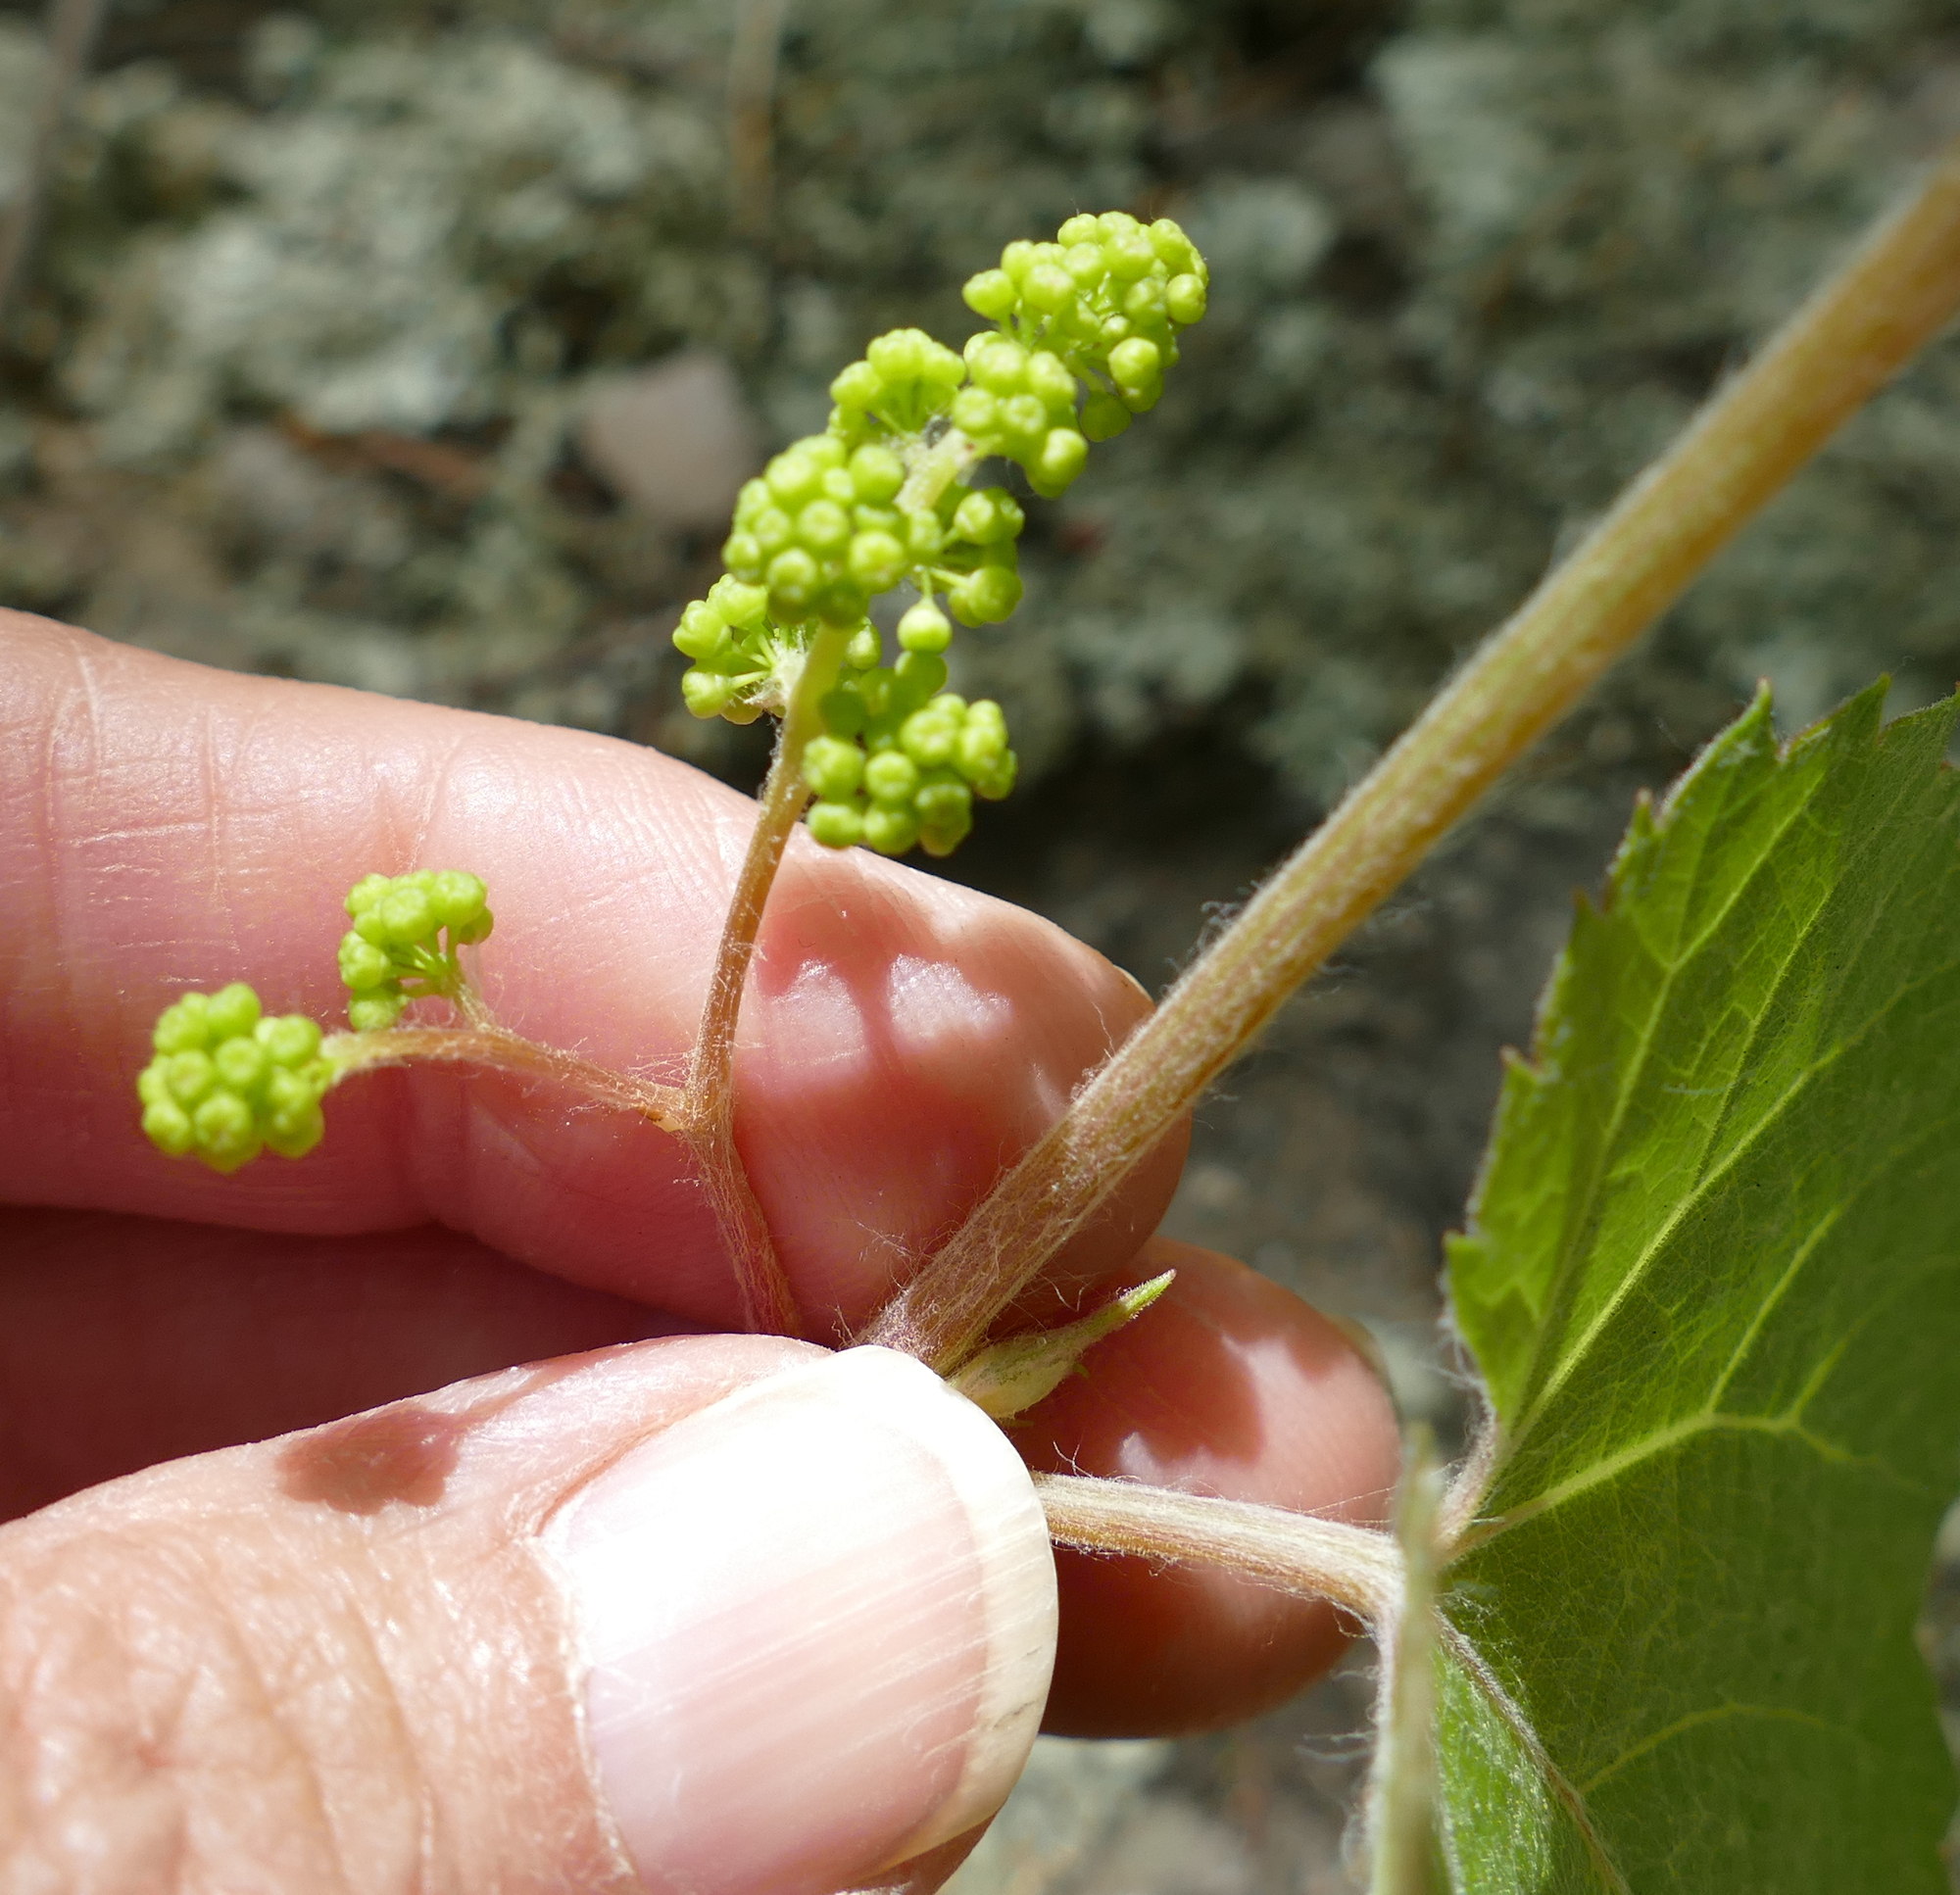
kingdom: Plantae
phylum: Tracheophyta
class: Magnoliopsida
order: Vitales
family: Vitaceae
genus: Vitis
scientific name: Vitis arizonica
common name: Canyon grape
